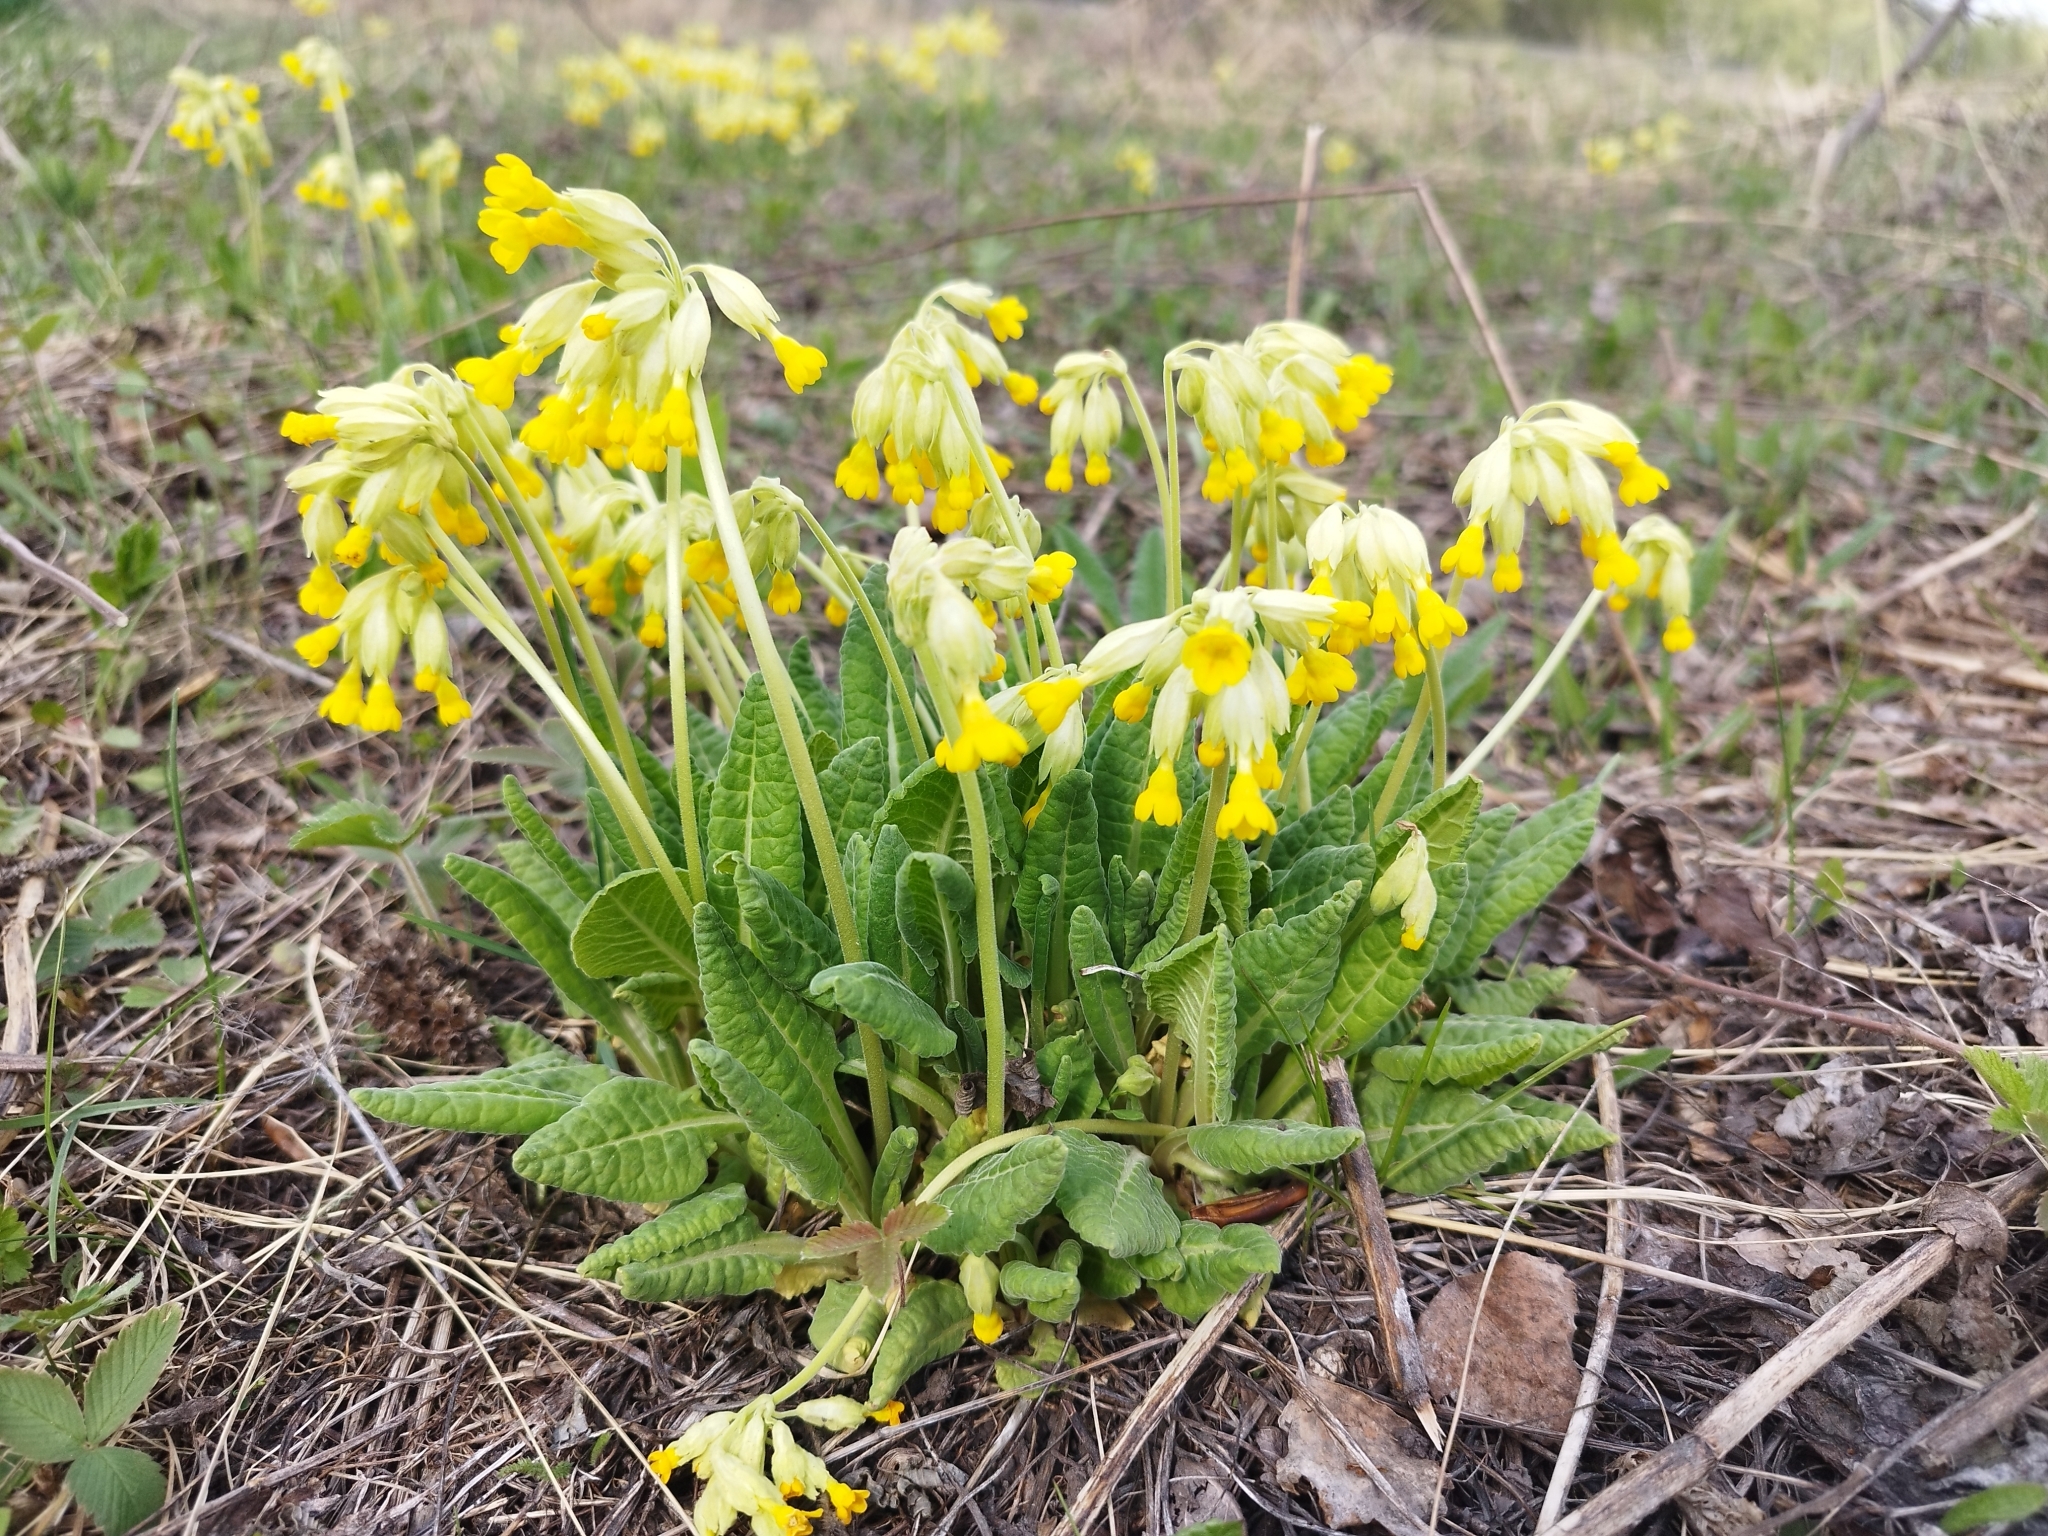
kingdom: Plantae
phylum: Tracheophyta
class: Magnoliopsida
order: Ericales
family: Primulaceae
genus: Primula
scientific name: Primula veris
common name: Cowslip
